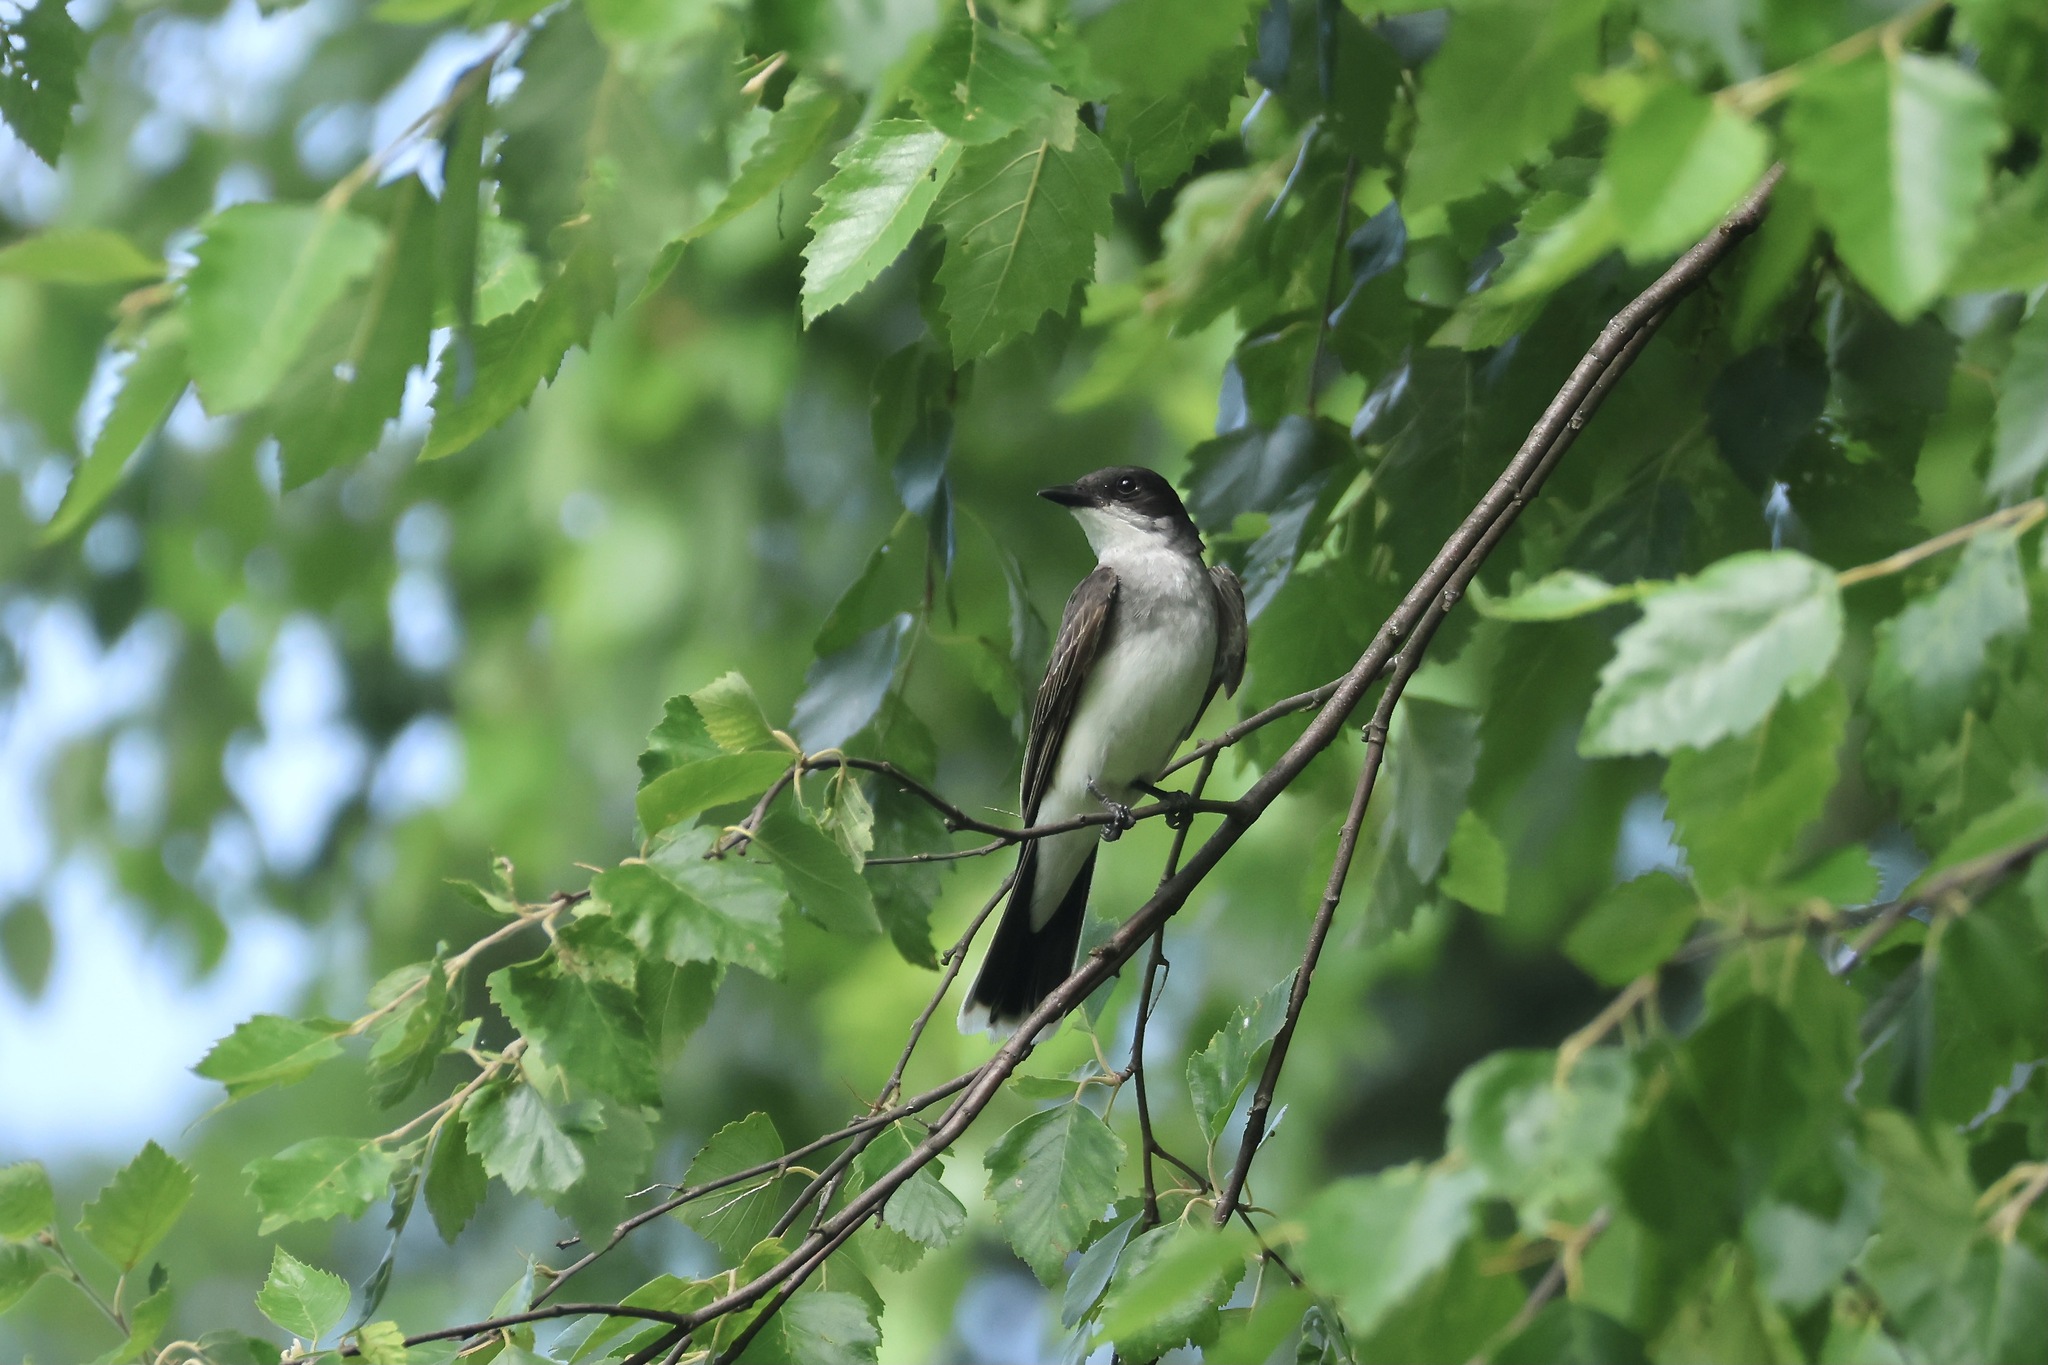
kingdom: Animalia
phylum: Chordata
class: Aves
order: Passeriformes
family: Tyrannidae
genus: Tyrannus
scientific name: Tyrannus tyrannus
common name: Eastern kingbird
